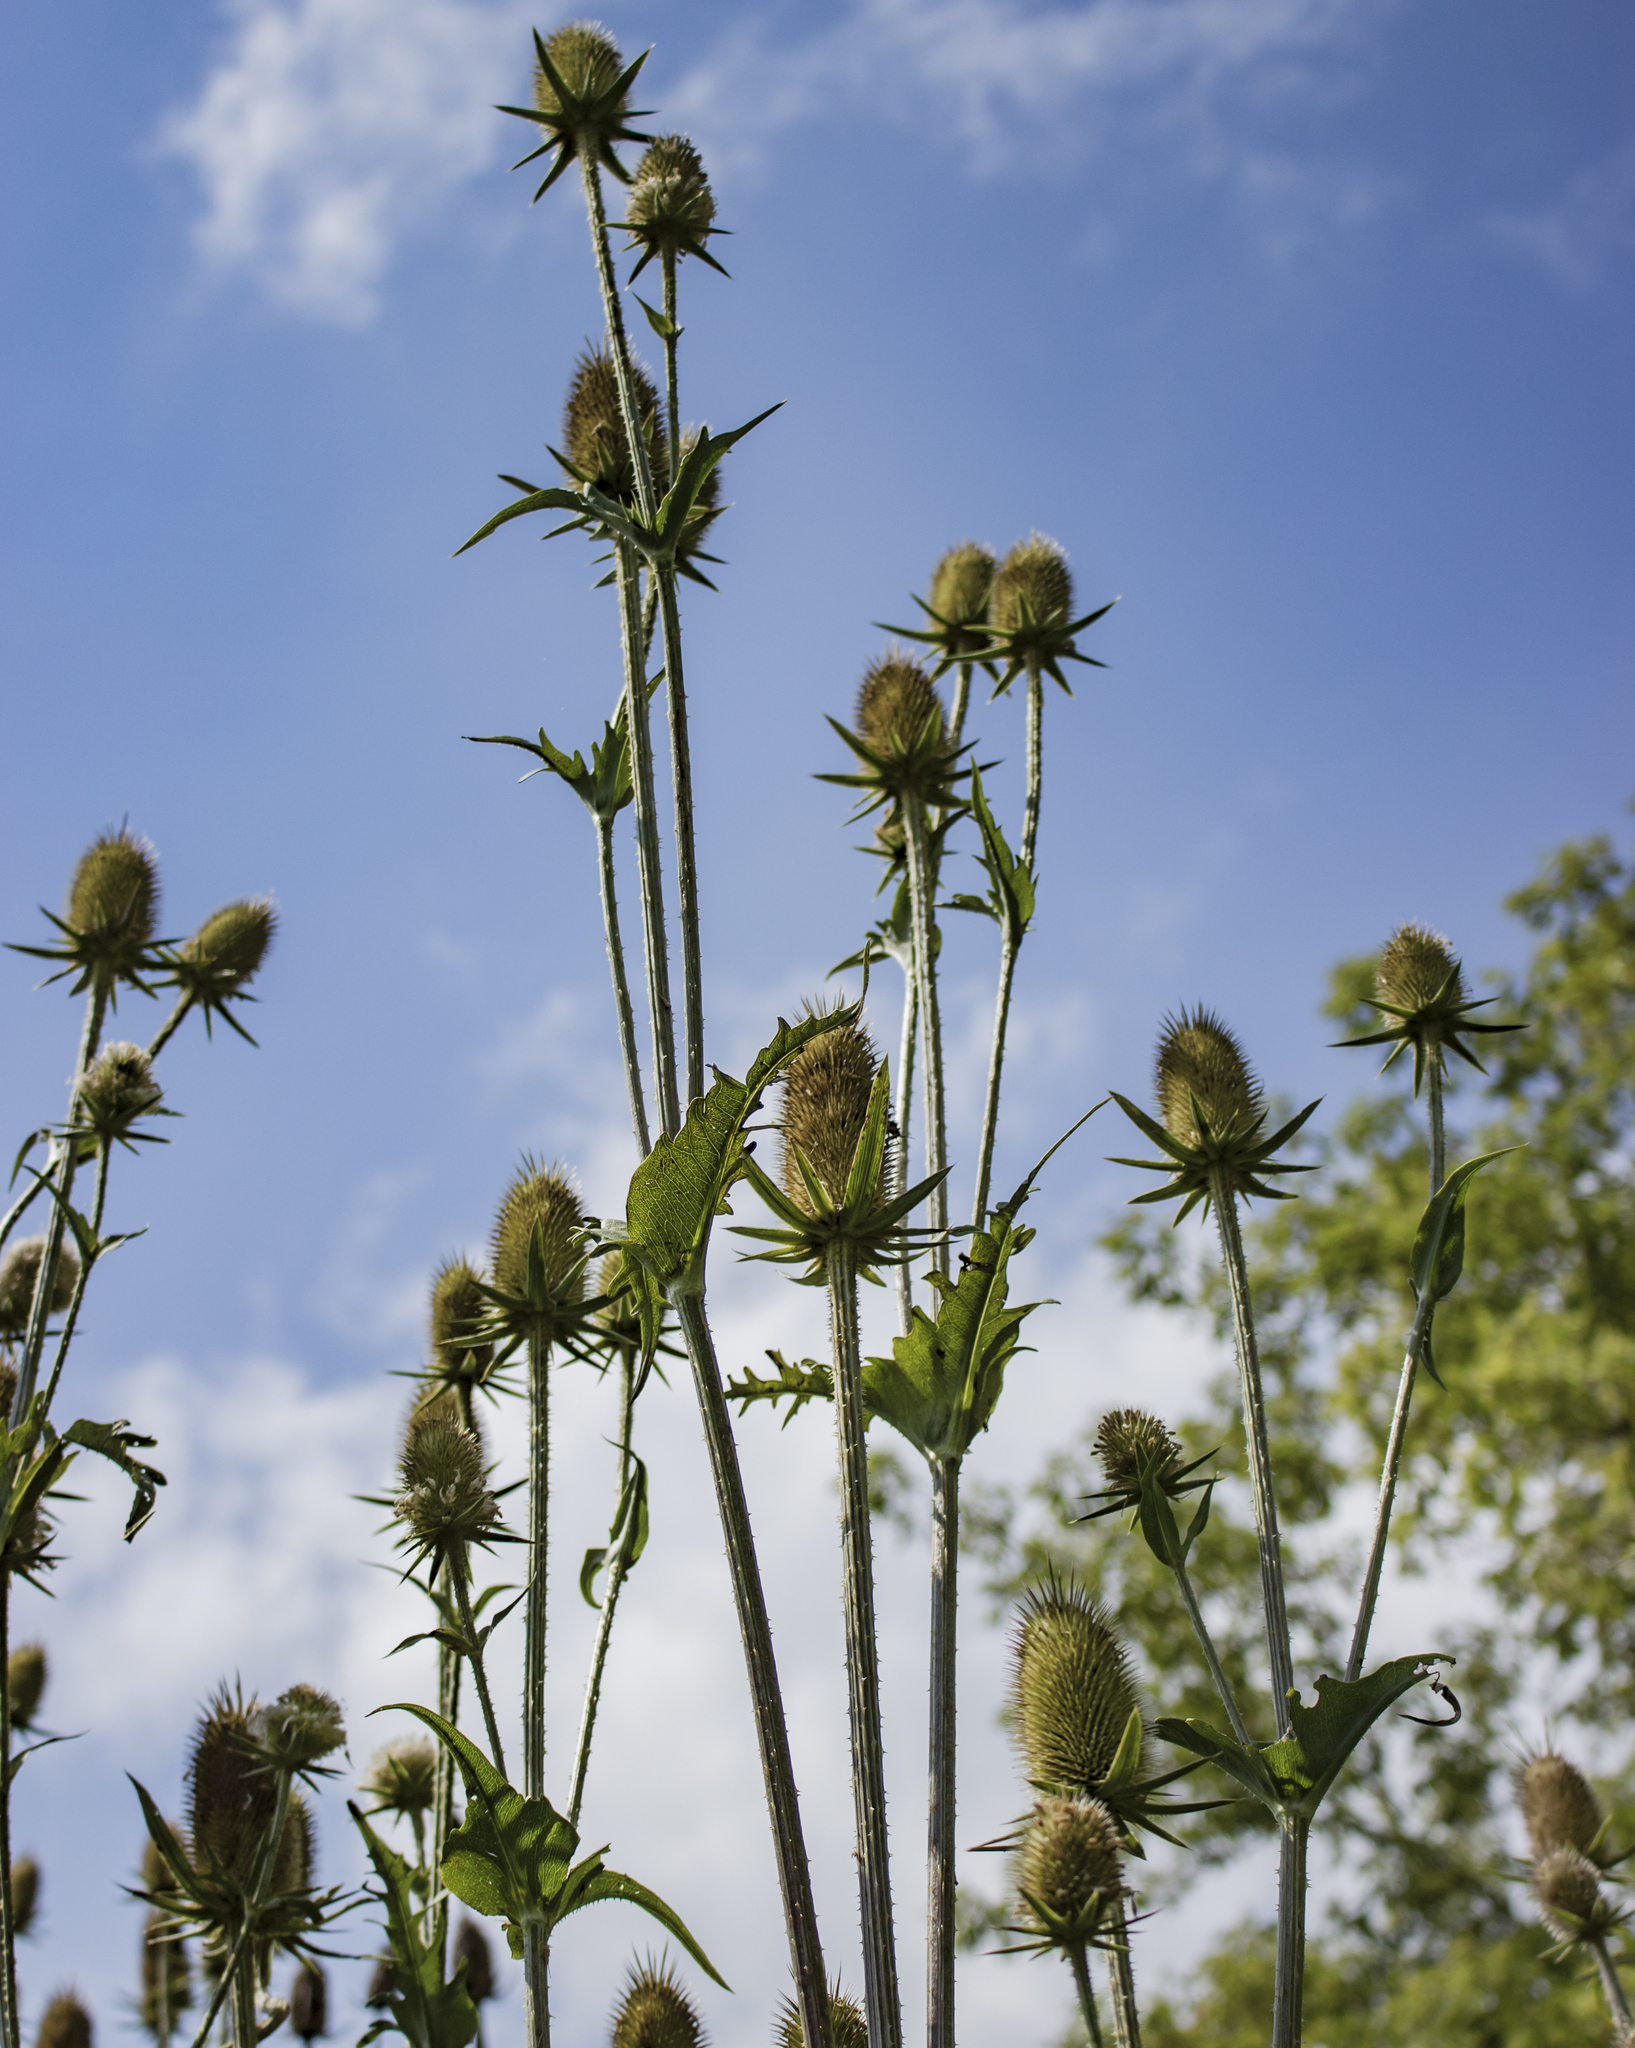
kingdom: Plantae
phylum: Tracheophyta
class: Magnoliopsida
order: Dipsacales
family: Caprifoliaceae
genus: Dipsacus
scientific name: Dipsacus laciniatus
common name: Cut-leaved teasel
